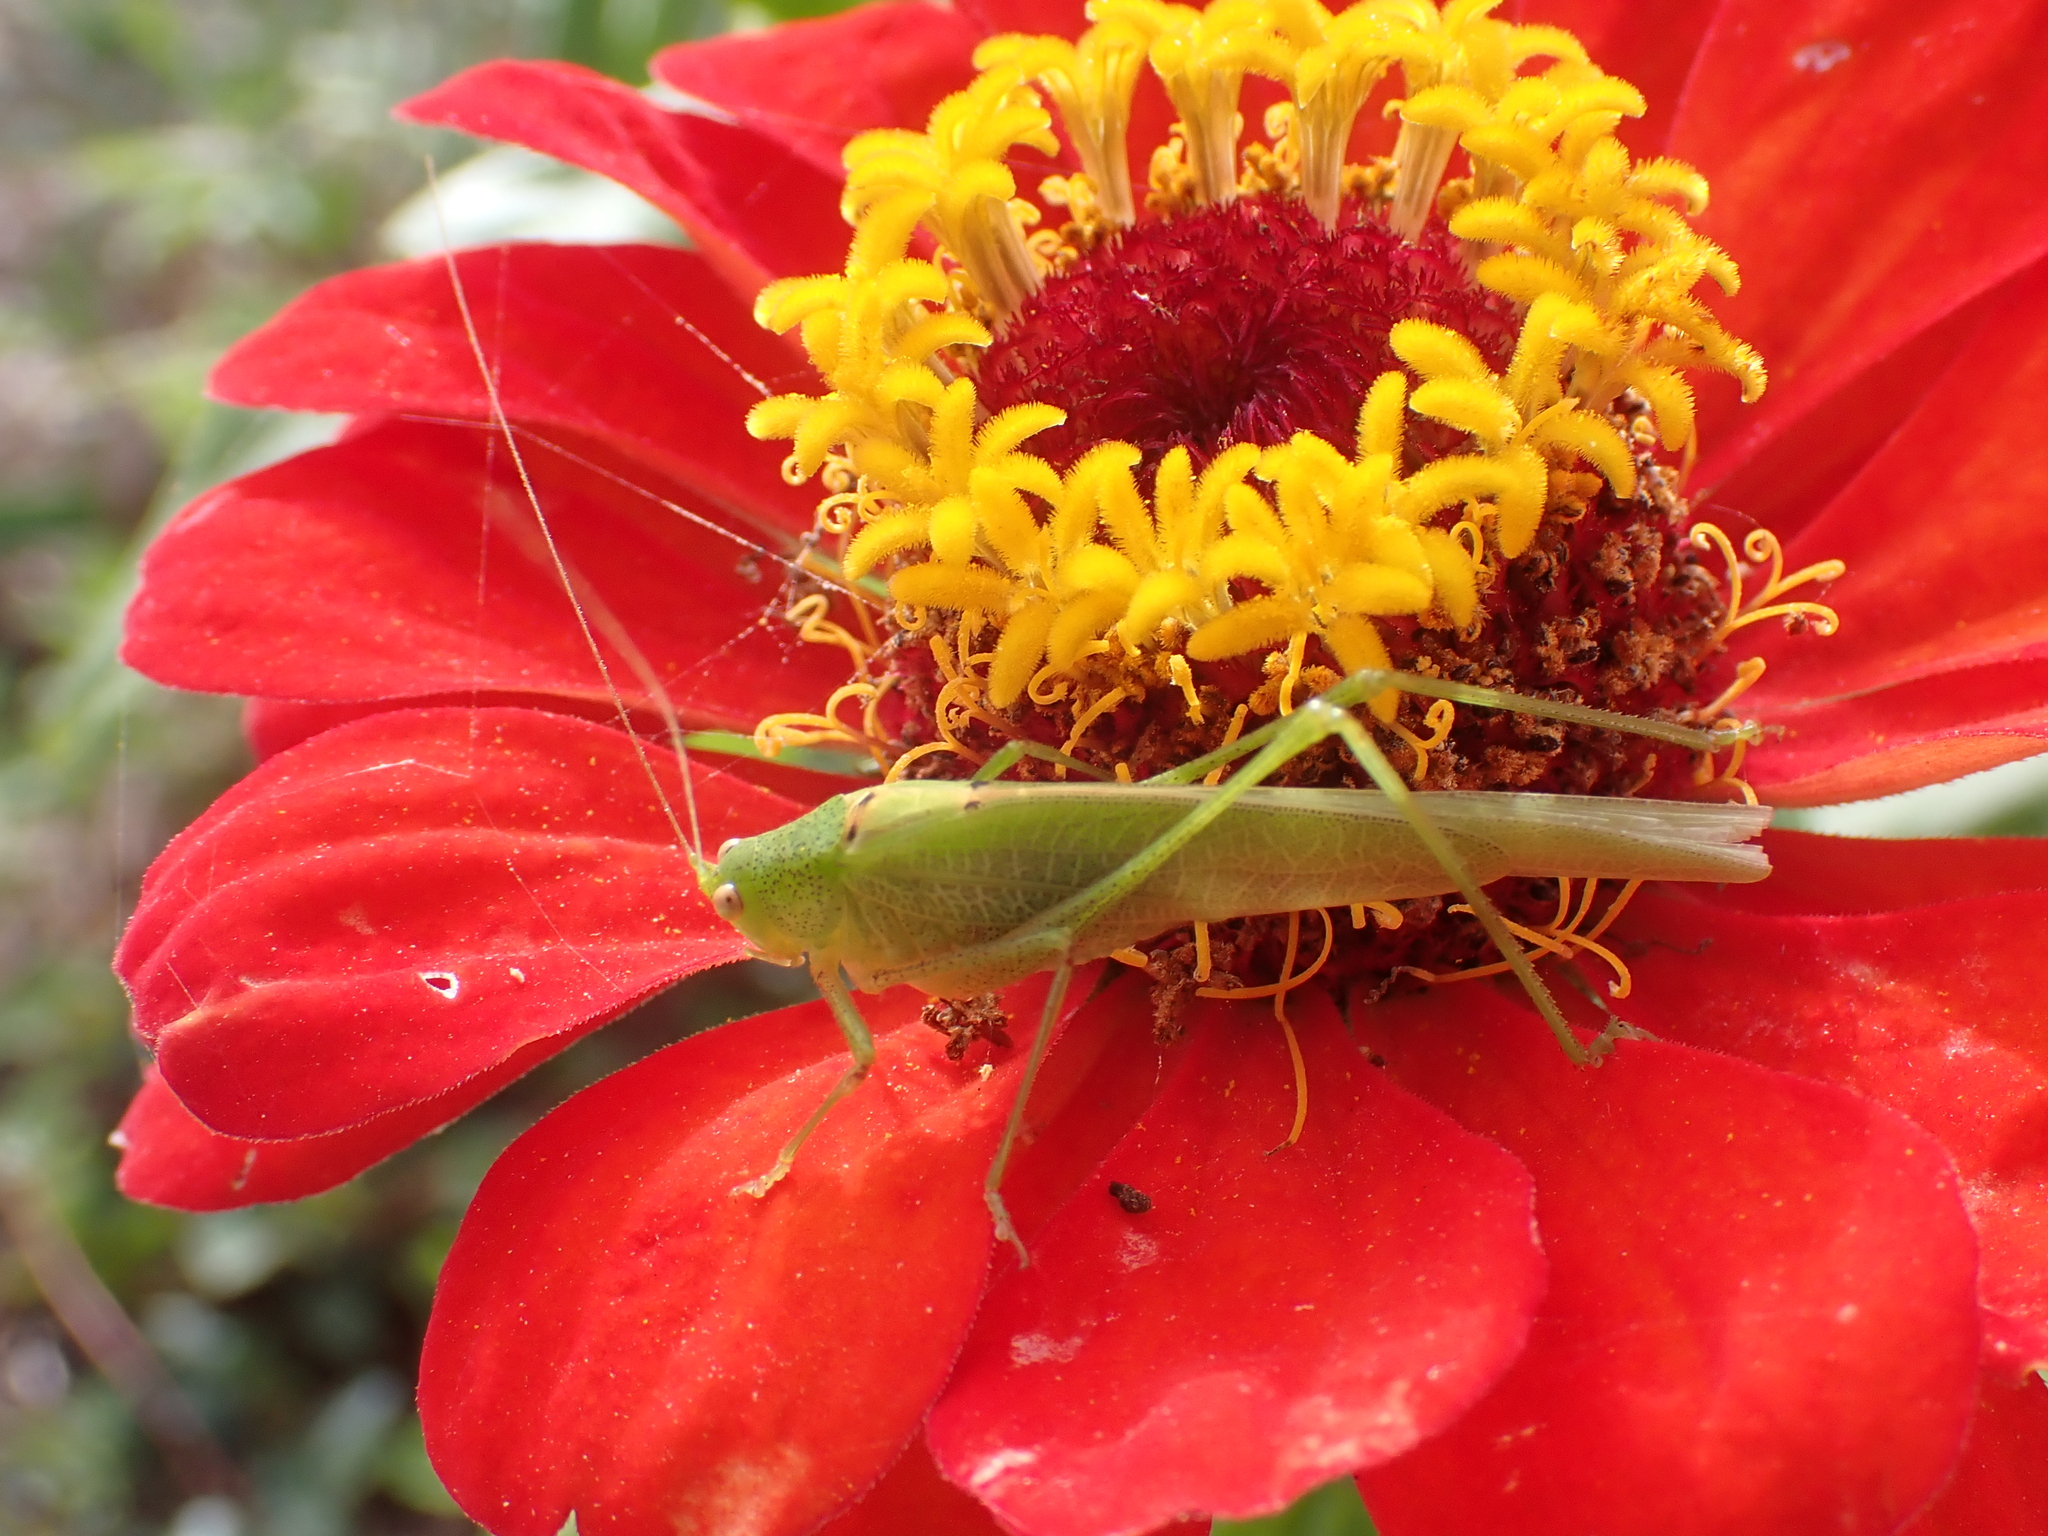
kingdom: Animalia
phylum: Arthropoda
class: Insecta
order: Orthoptera
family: Tettigoniidae
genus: Phaneroptera
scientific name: Phaneroptera nana
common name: Southern sickle bush-cricket
